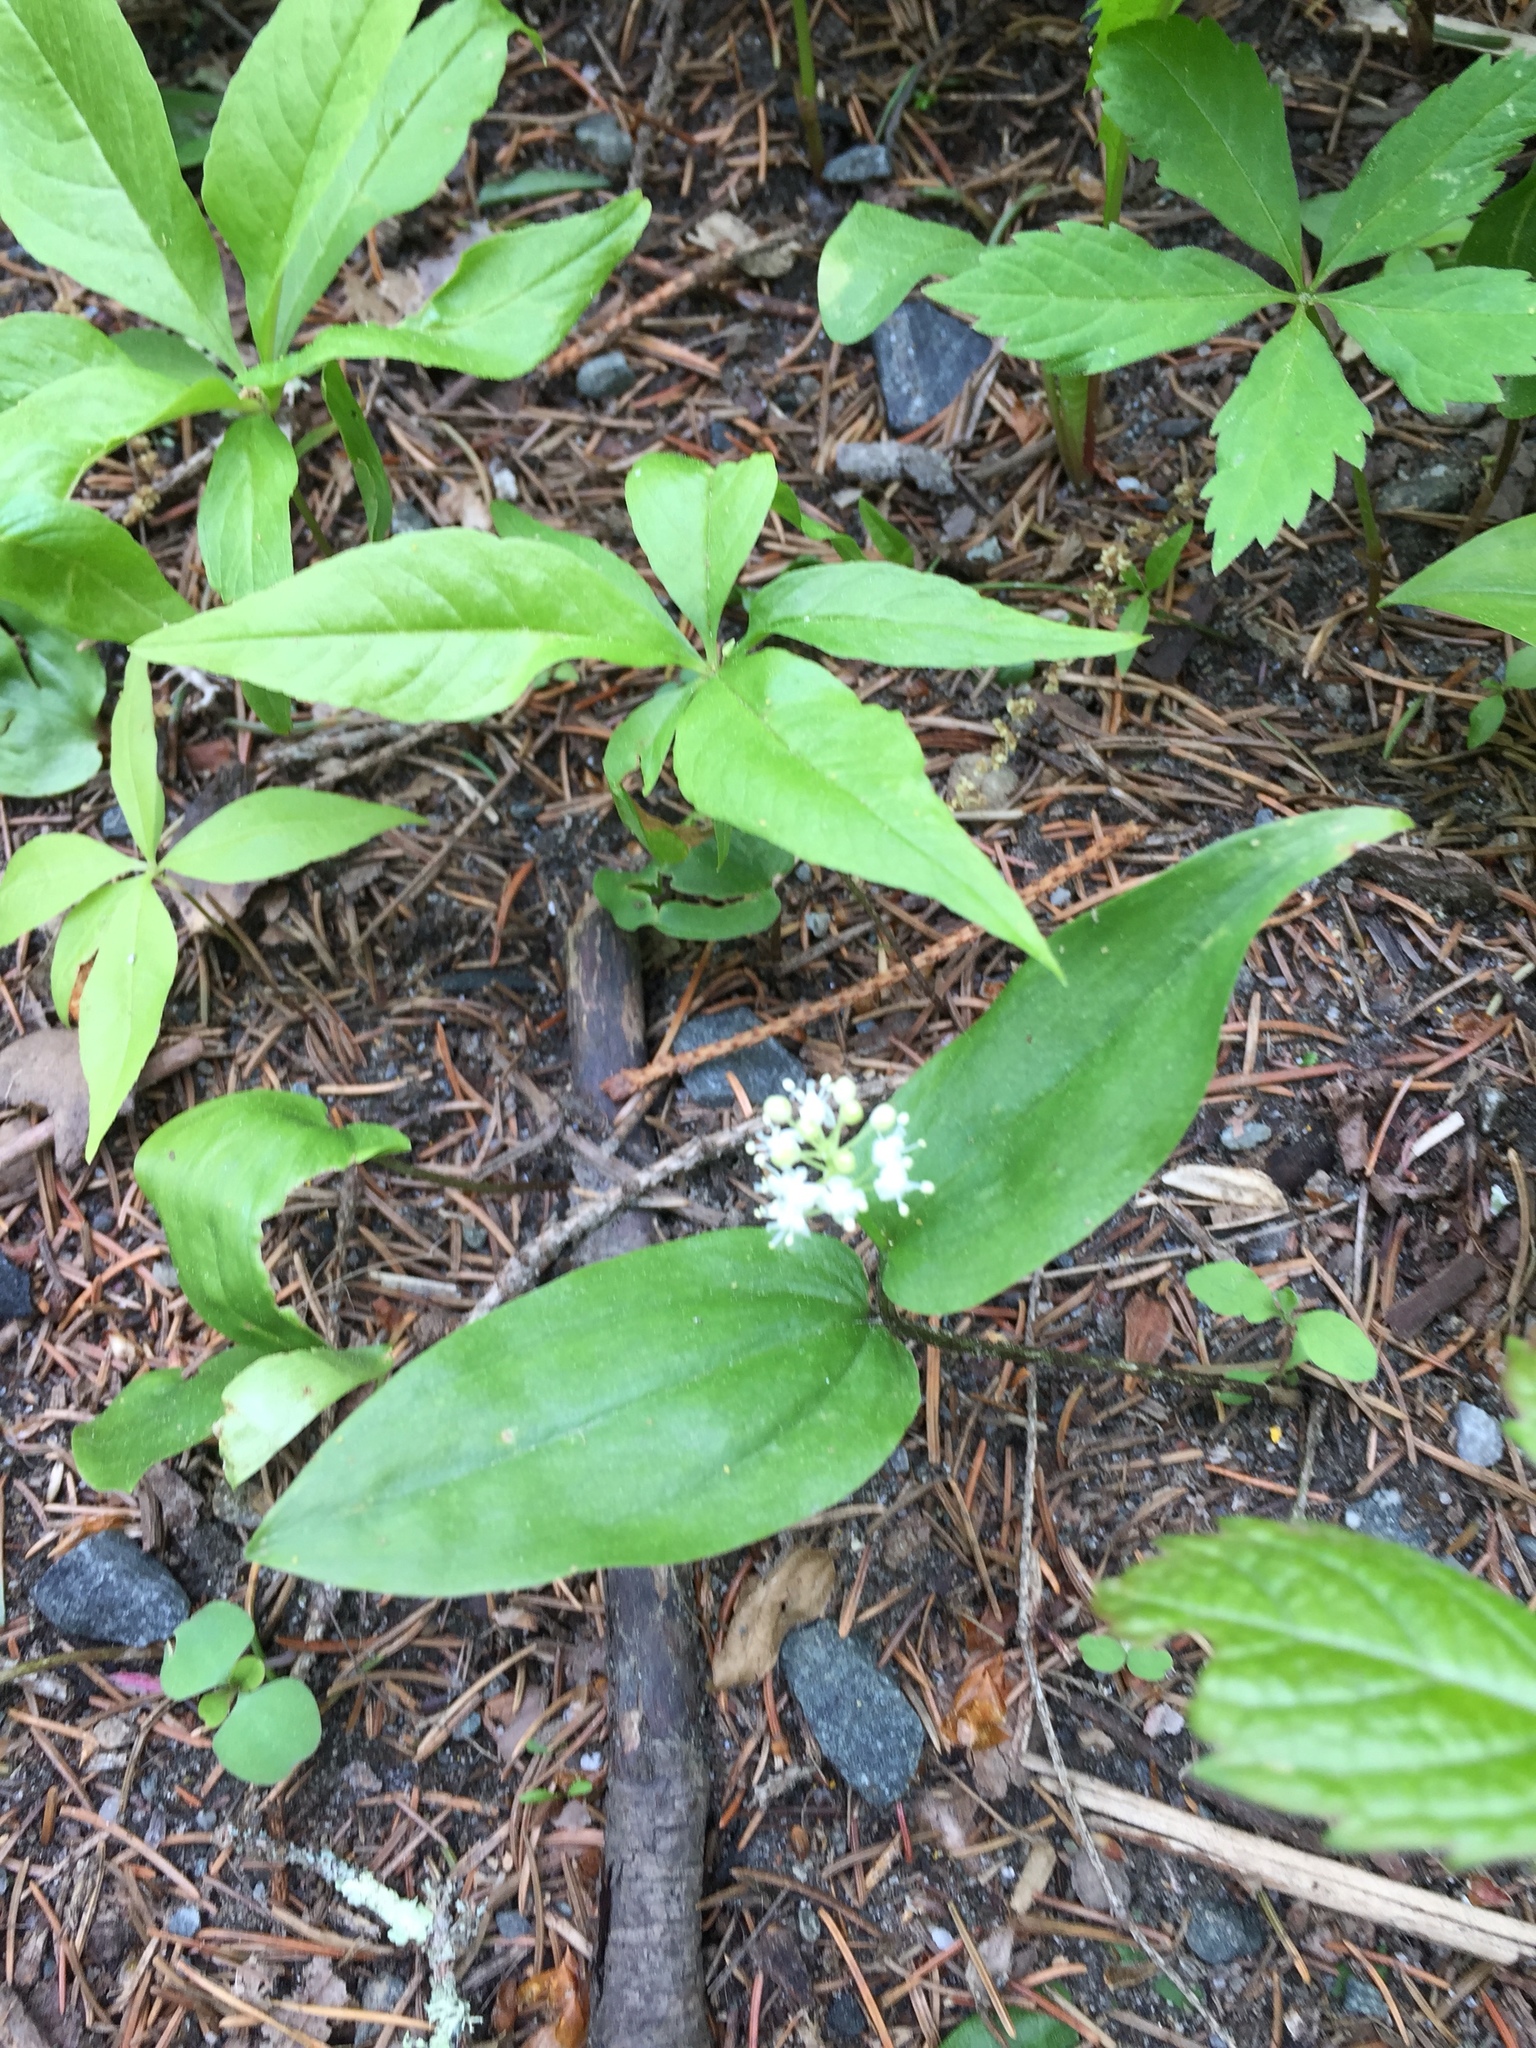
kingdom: Plantae
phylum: Tracheophyta
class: Liliopsida
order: Asparagales
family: Asparagaceae
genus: Maianthemum
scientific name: Maianthemum canadense
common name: False lily-of-the-valley
